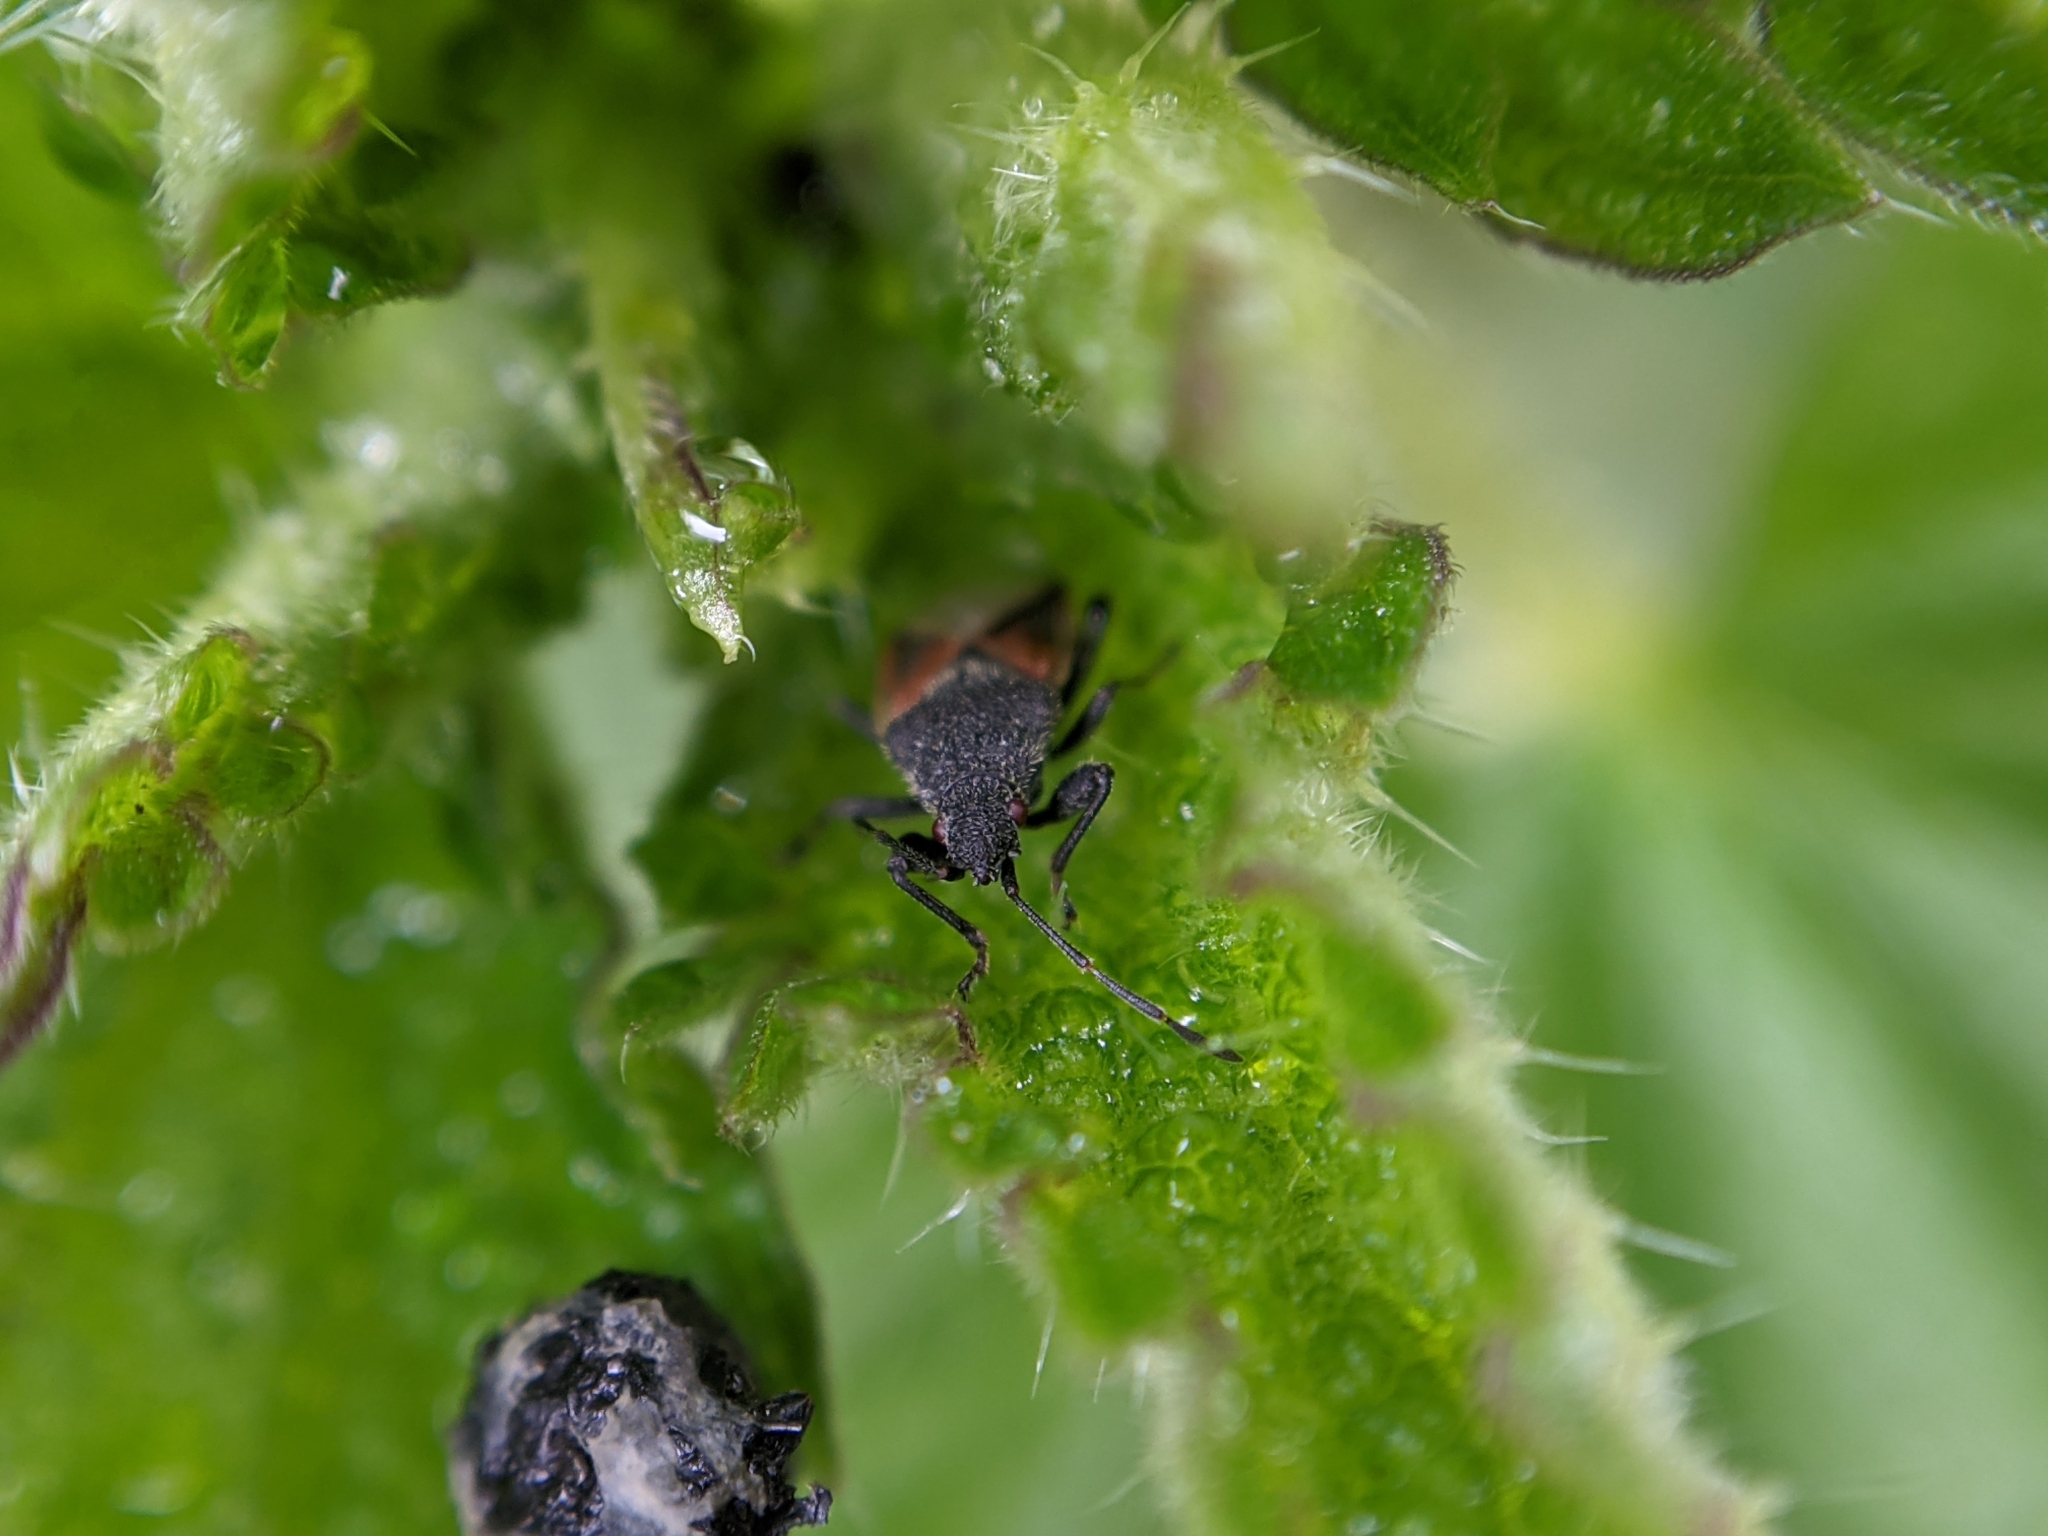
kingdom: Animalia
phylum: Arthropoda
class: Insecta
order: Hemiptera
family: Oxycarenidae
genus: Oxycarenus
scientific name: Oxycarenus lavaterae
